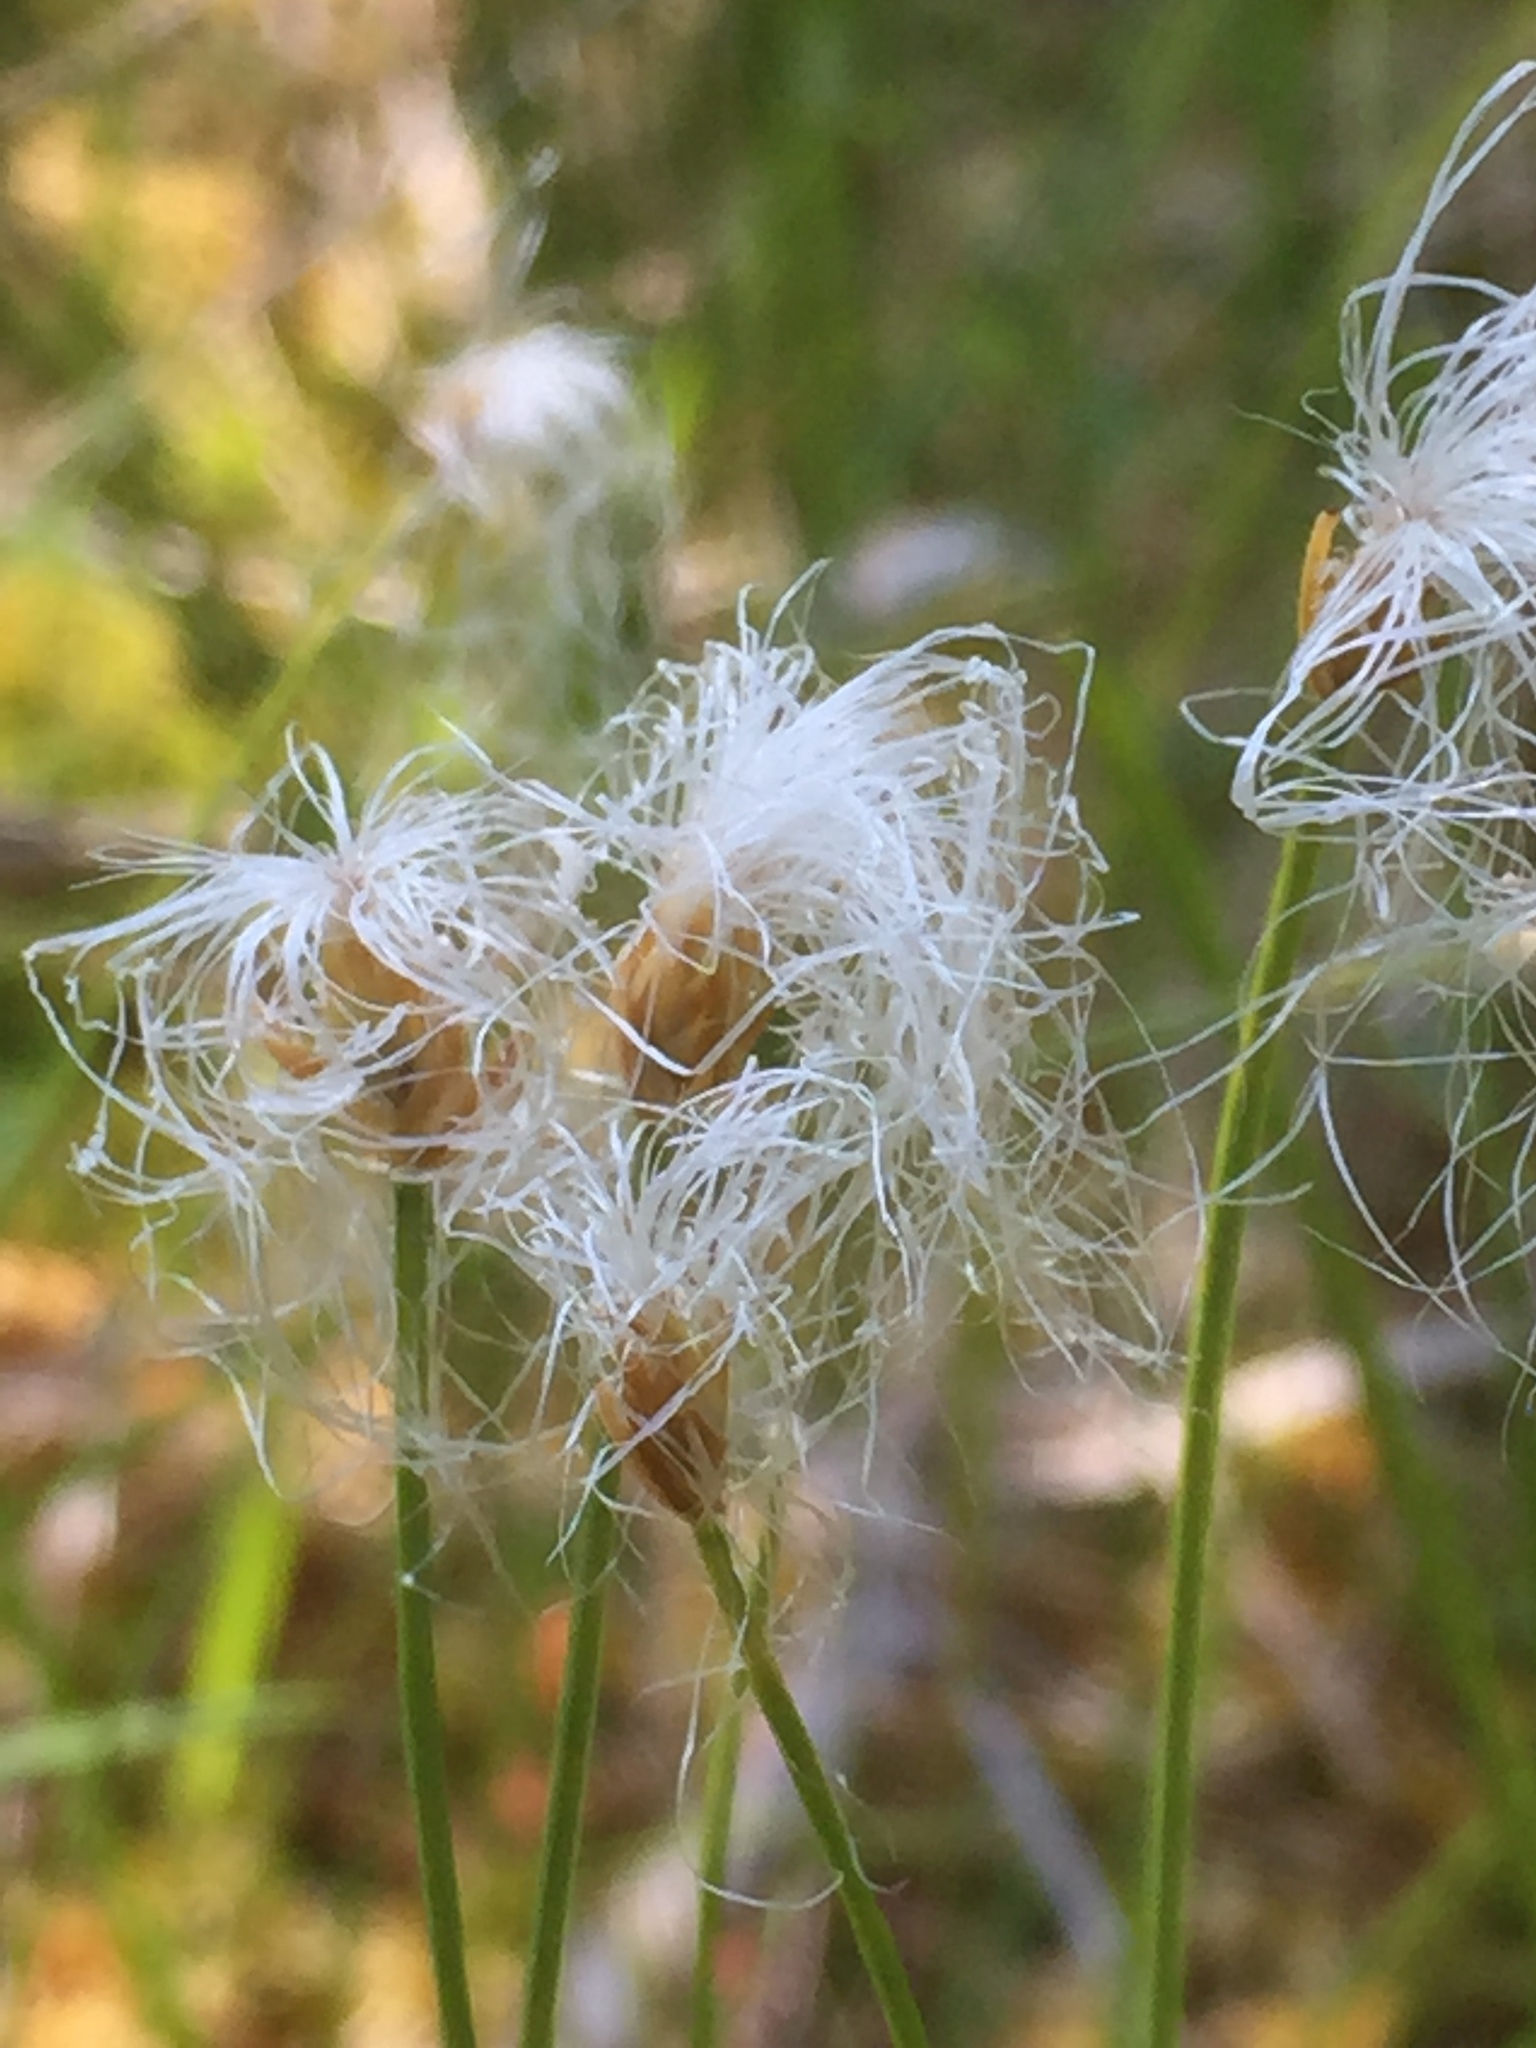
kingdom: Plantae
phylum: Tracheophyta
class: Liliopsida
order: Poales
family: Cyperaceae
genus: Trichophorum
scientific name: Trichophorum alpinum
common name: Alpine bulrush
